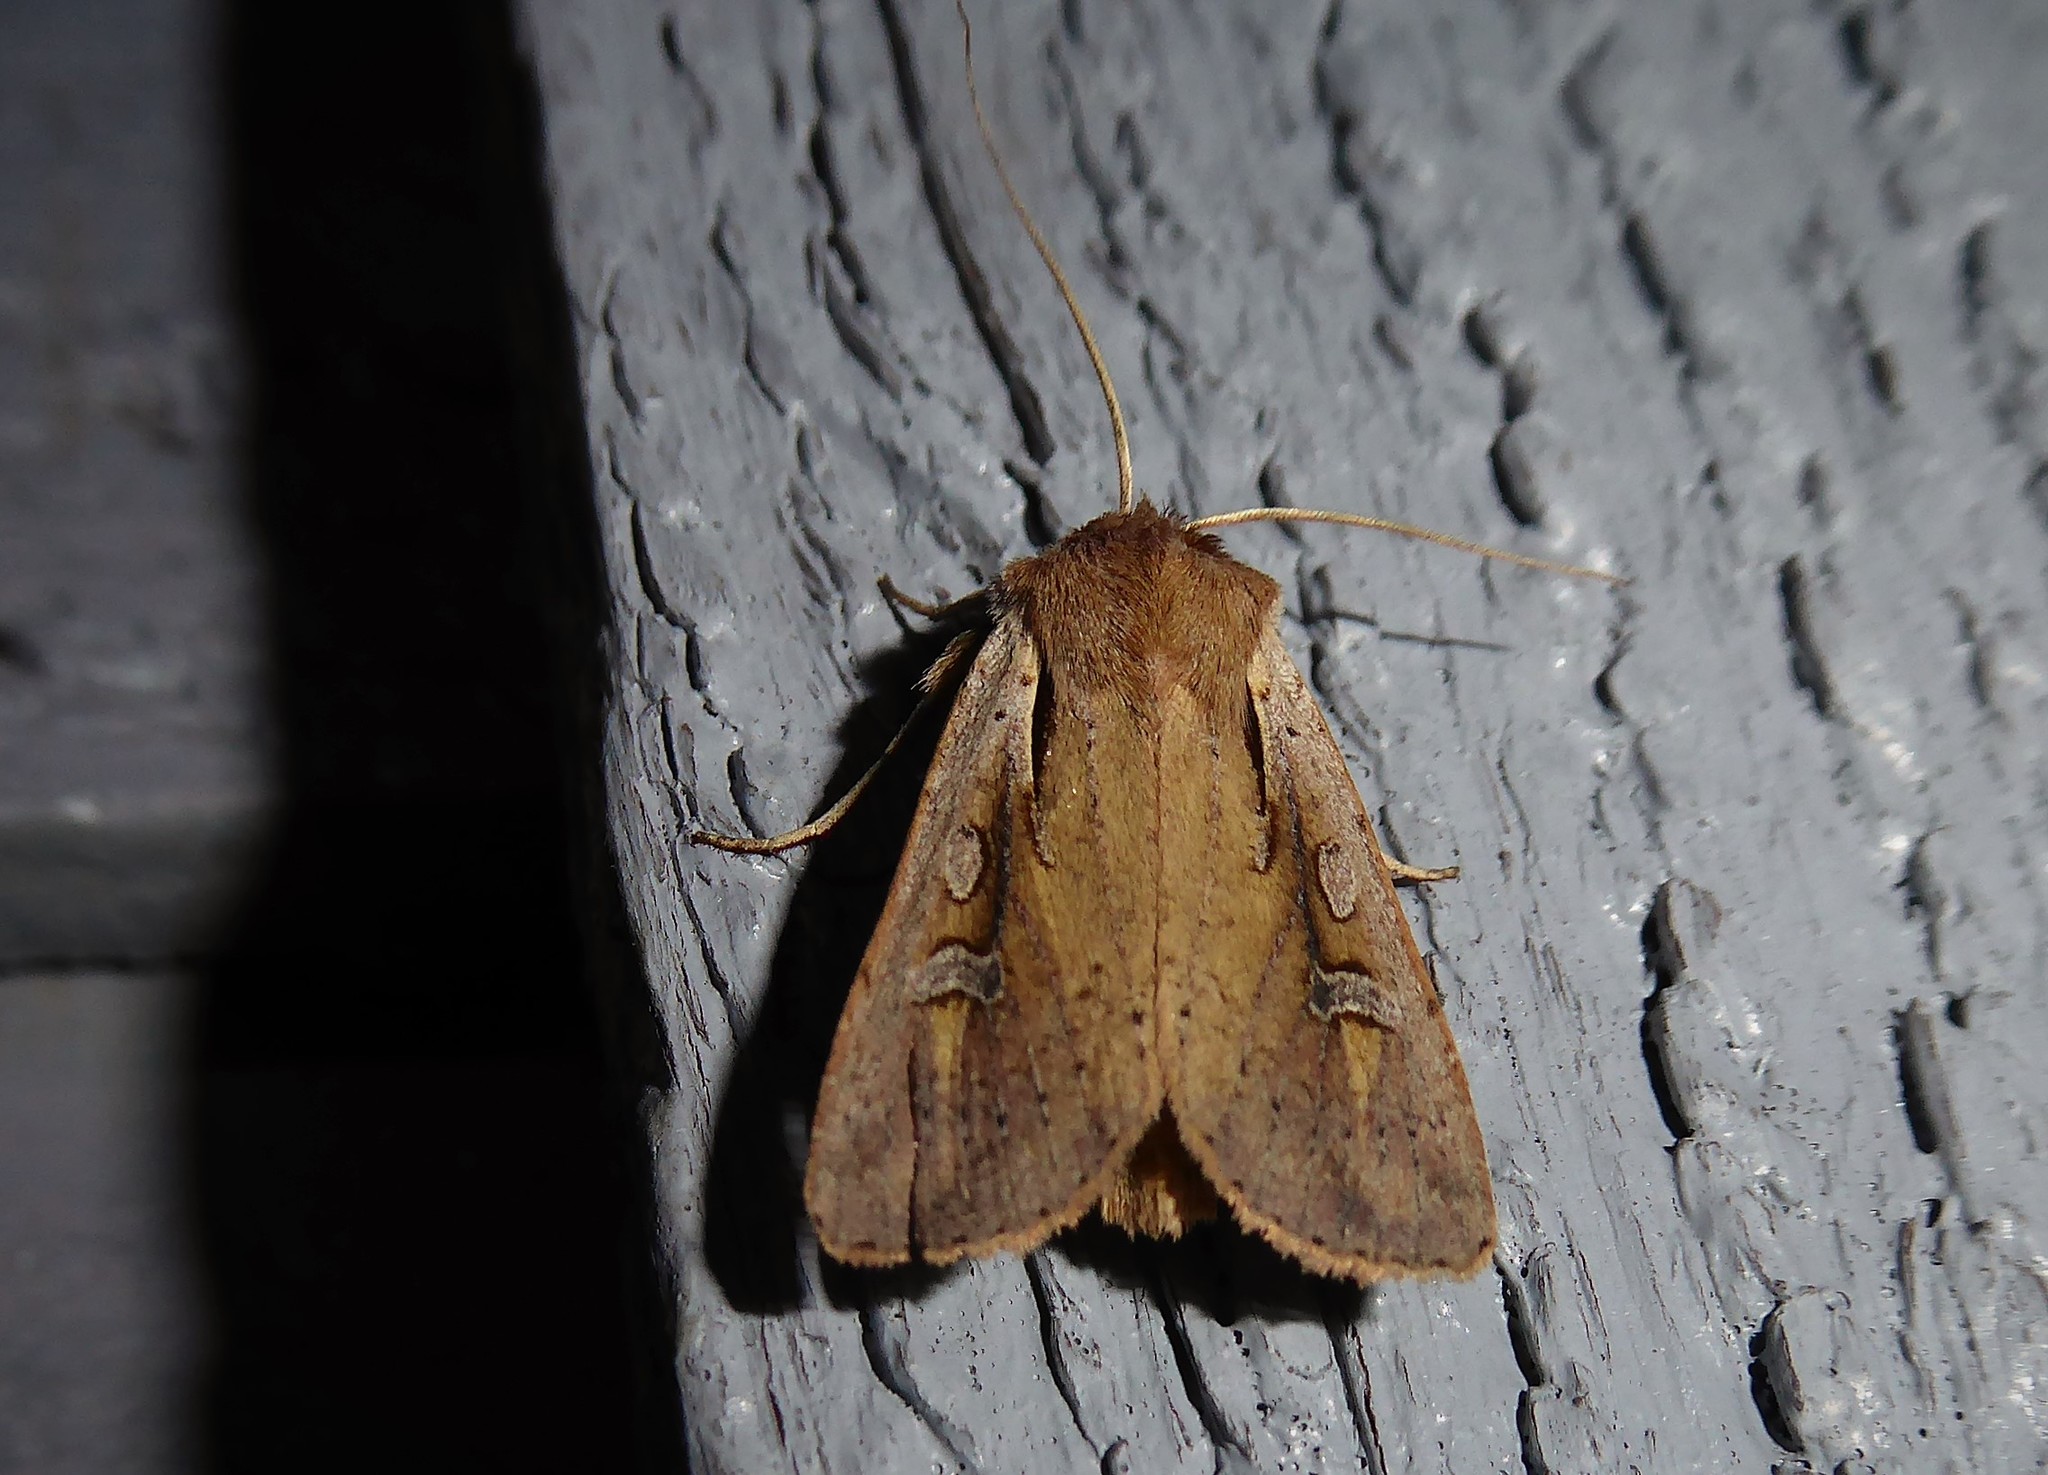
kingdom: Animalia
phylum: Arthropoda
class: Insecta
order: Lepidoptera
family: Noctuidae
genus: Ichneutica
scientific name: Ichneutica atristriga
